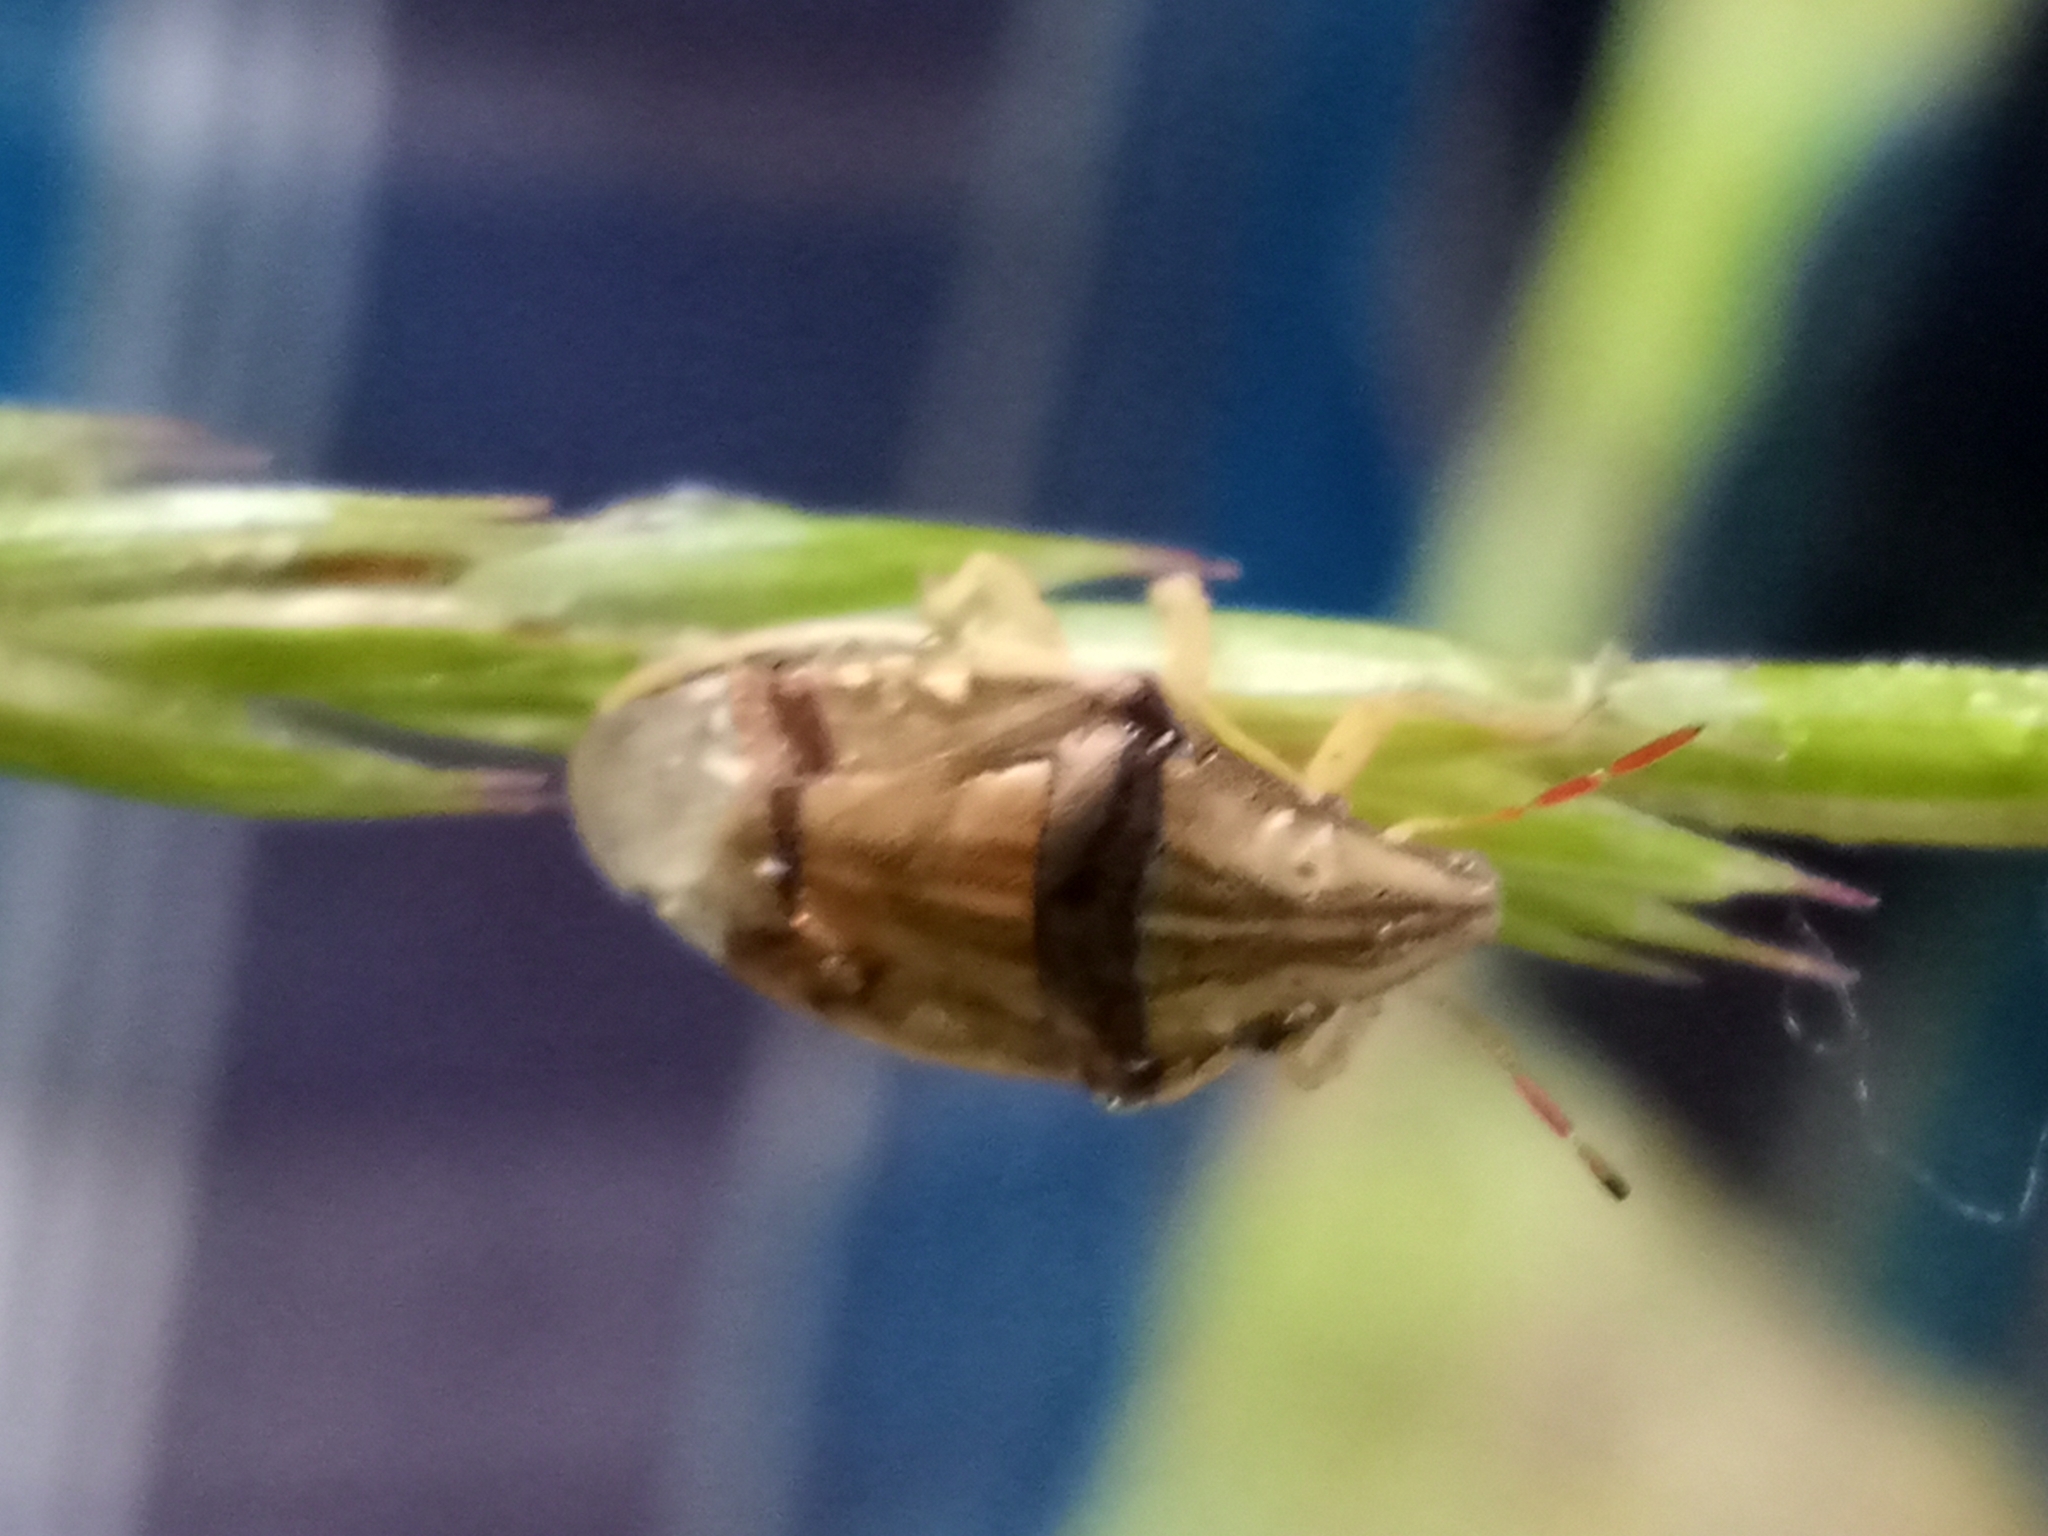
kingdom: Animalia
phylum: Arthropoda
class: Insecta
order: Hemiptera
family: Pentatomidae
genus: Aelia
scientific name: Aelia acuminata
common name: Bishop's mitre
